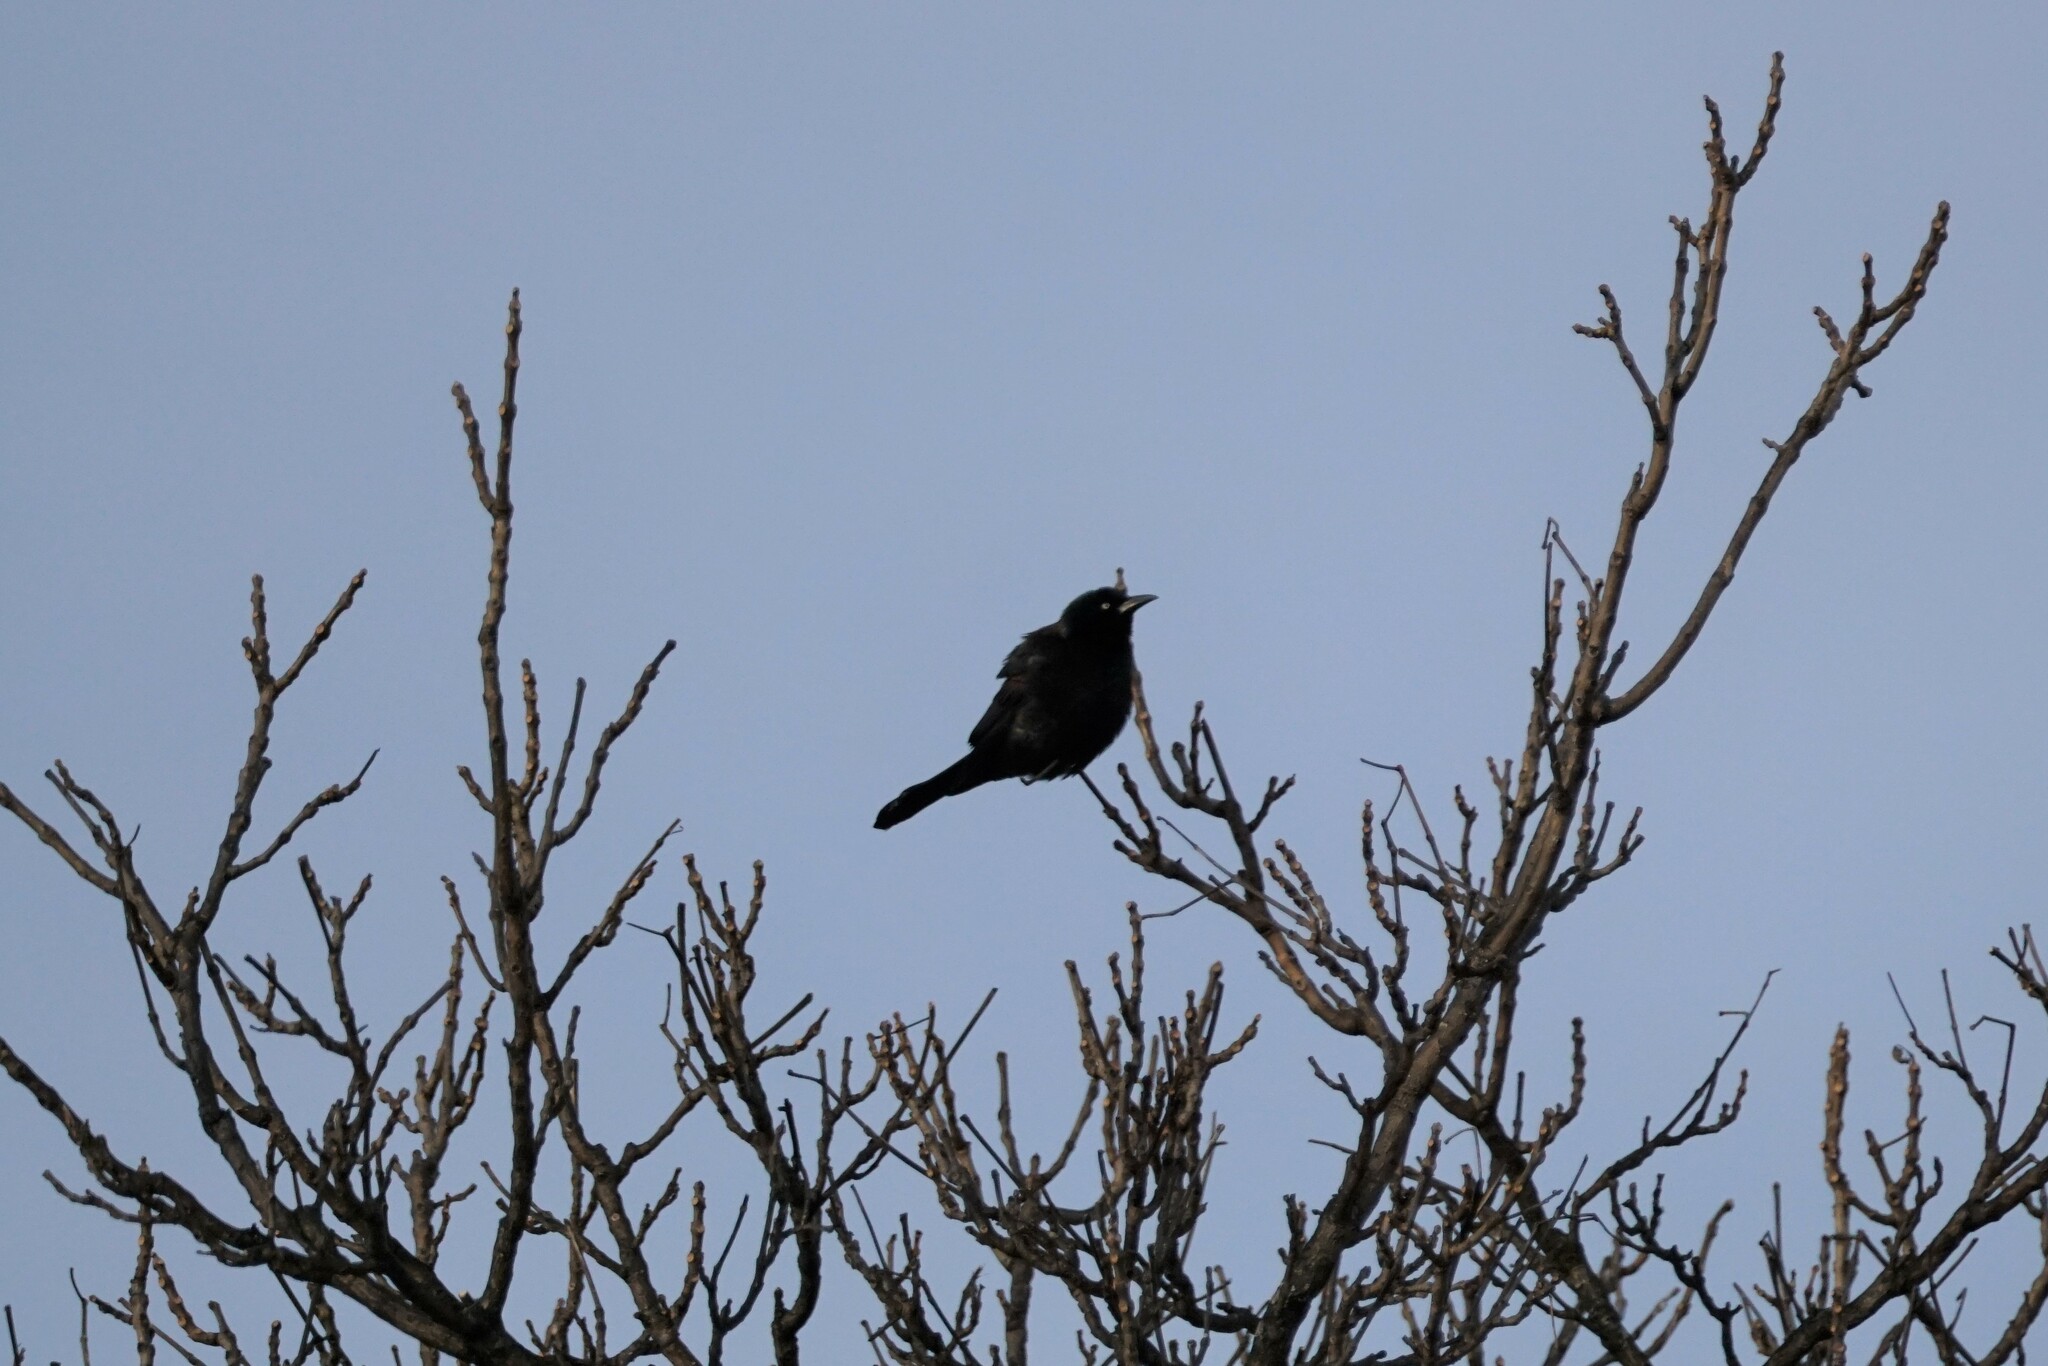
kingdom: Animalia
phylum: Chordata
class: Aves
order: Passeriformes
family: Icteridae
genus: Quiscalus
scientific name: Quiscalus quiscula
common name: Common grackle
